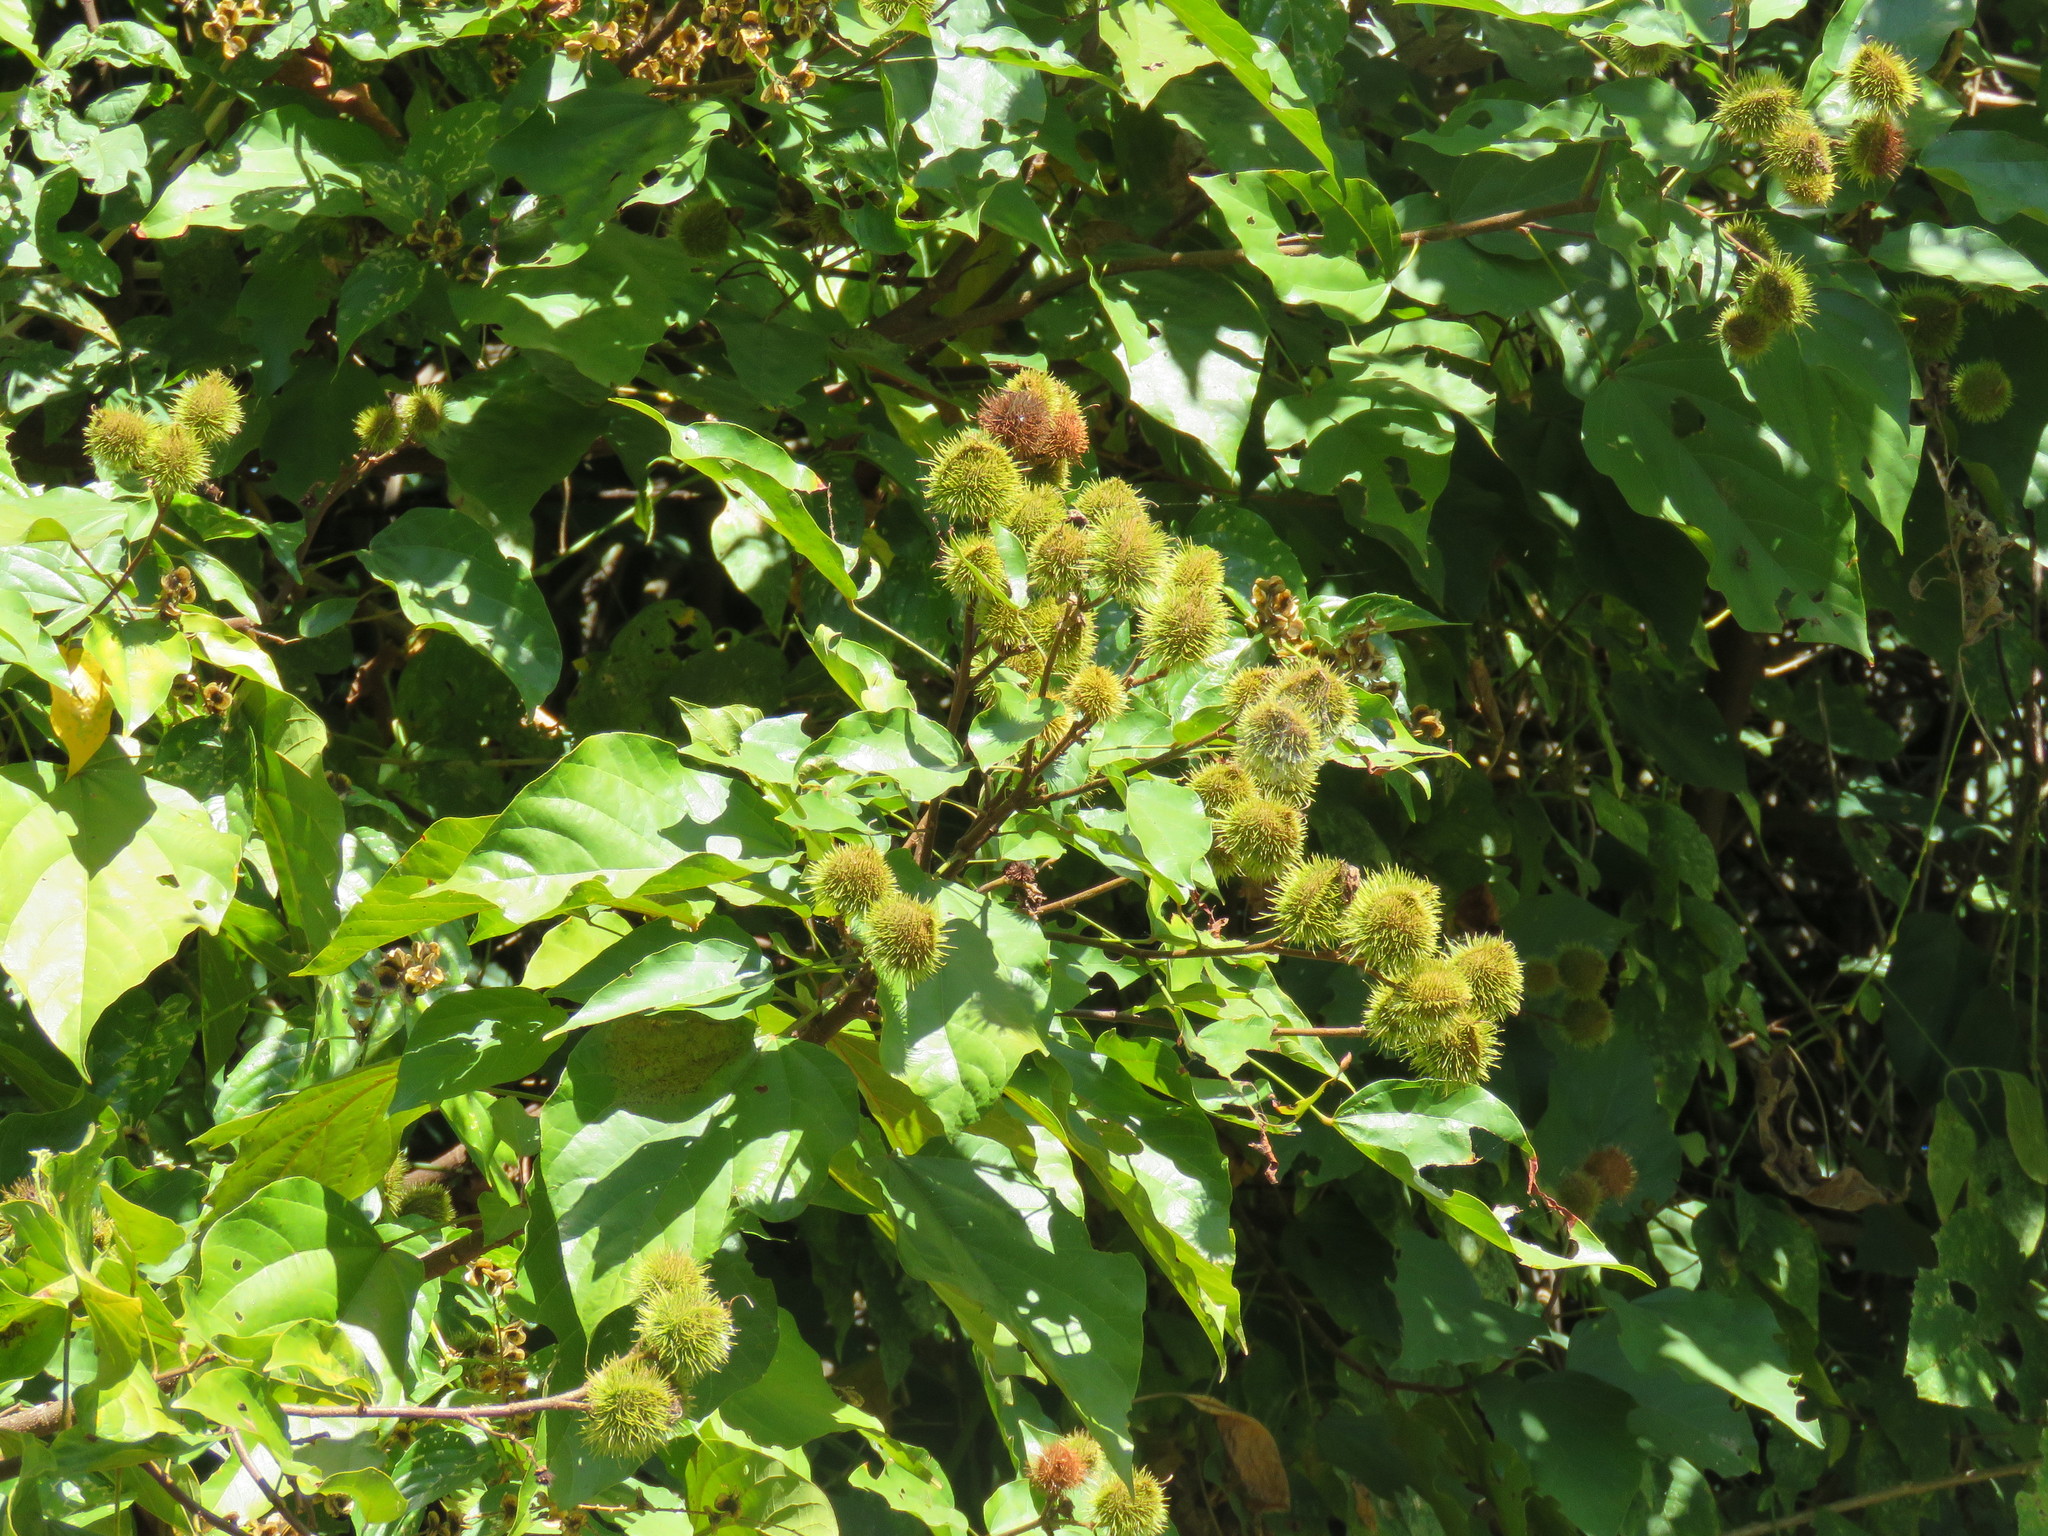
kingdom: Plantae
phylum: Tracheophyta
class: Magnoliopsida
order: Malvales
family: Bixaceae
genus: Bixa
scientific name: Bixa orellana
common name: Lipsticktree
